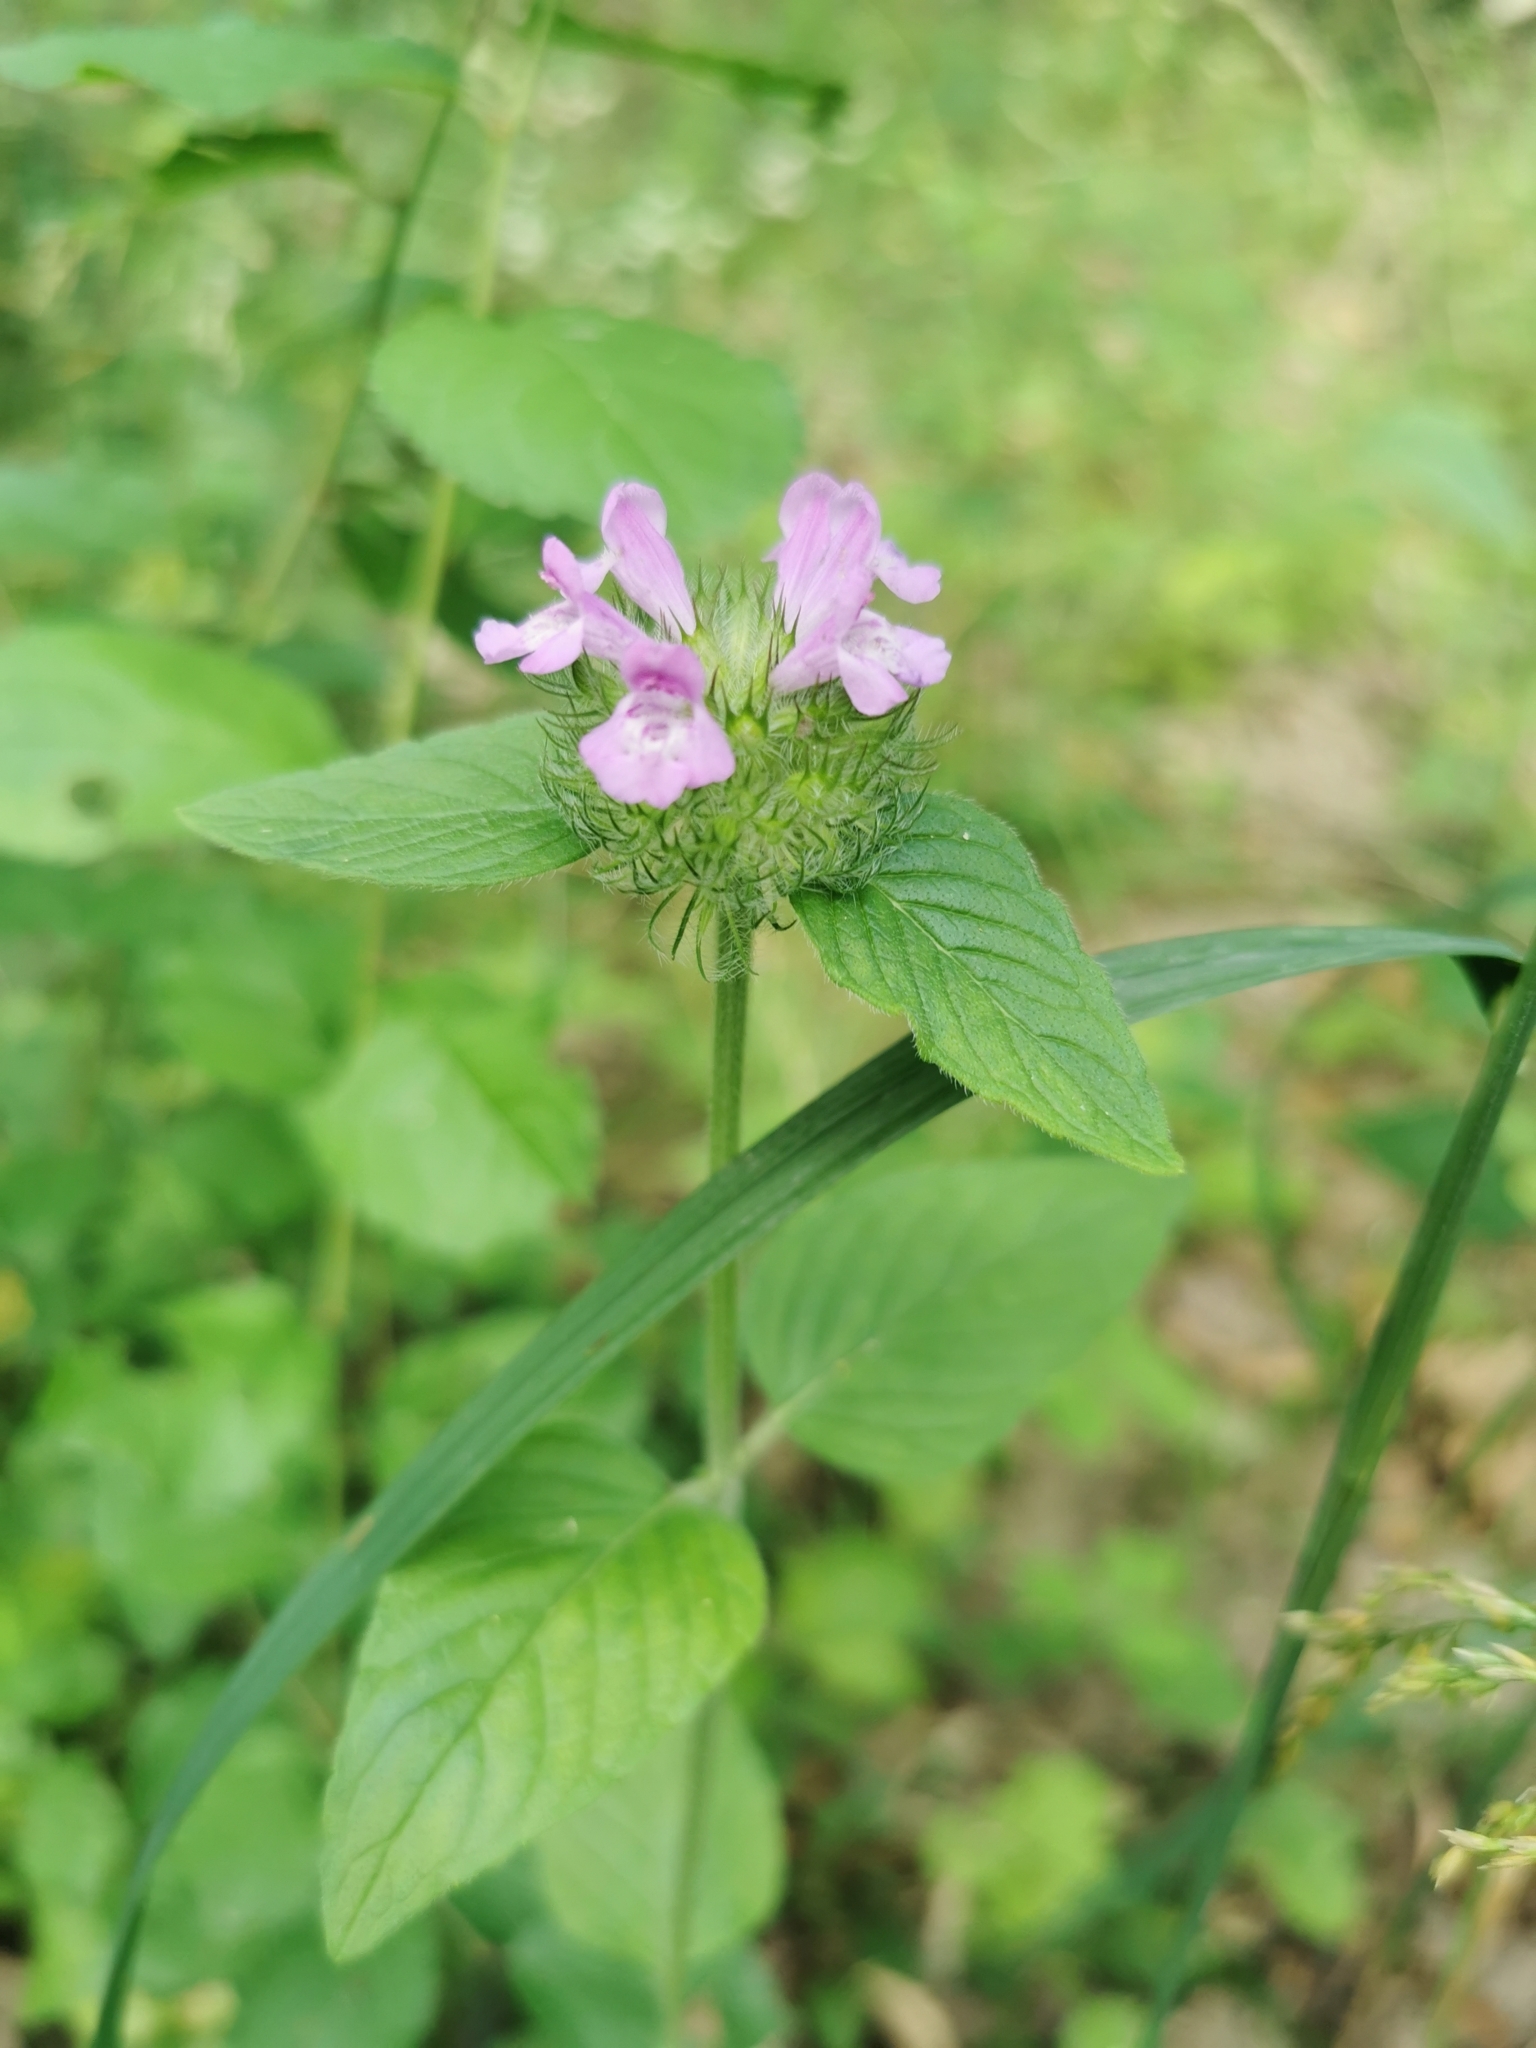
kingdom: Plantae
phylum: Tracheophyta
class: Magnoliopsida
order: Lamiales
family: Lamiaceae
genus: Clinopodium
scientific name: Clinopodium vulgare
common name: Wild basil
